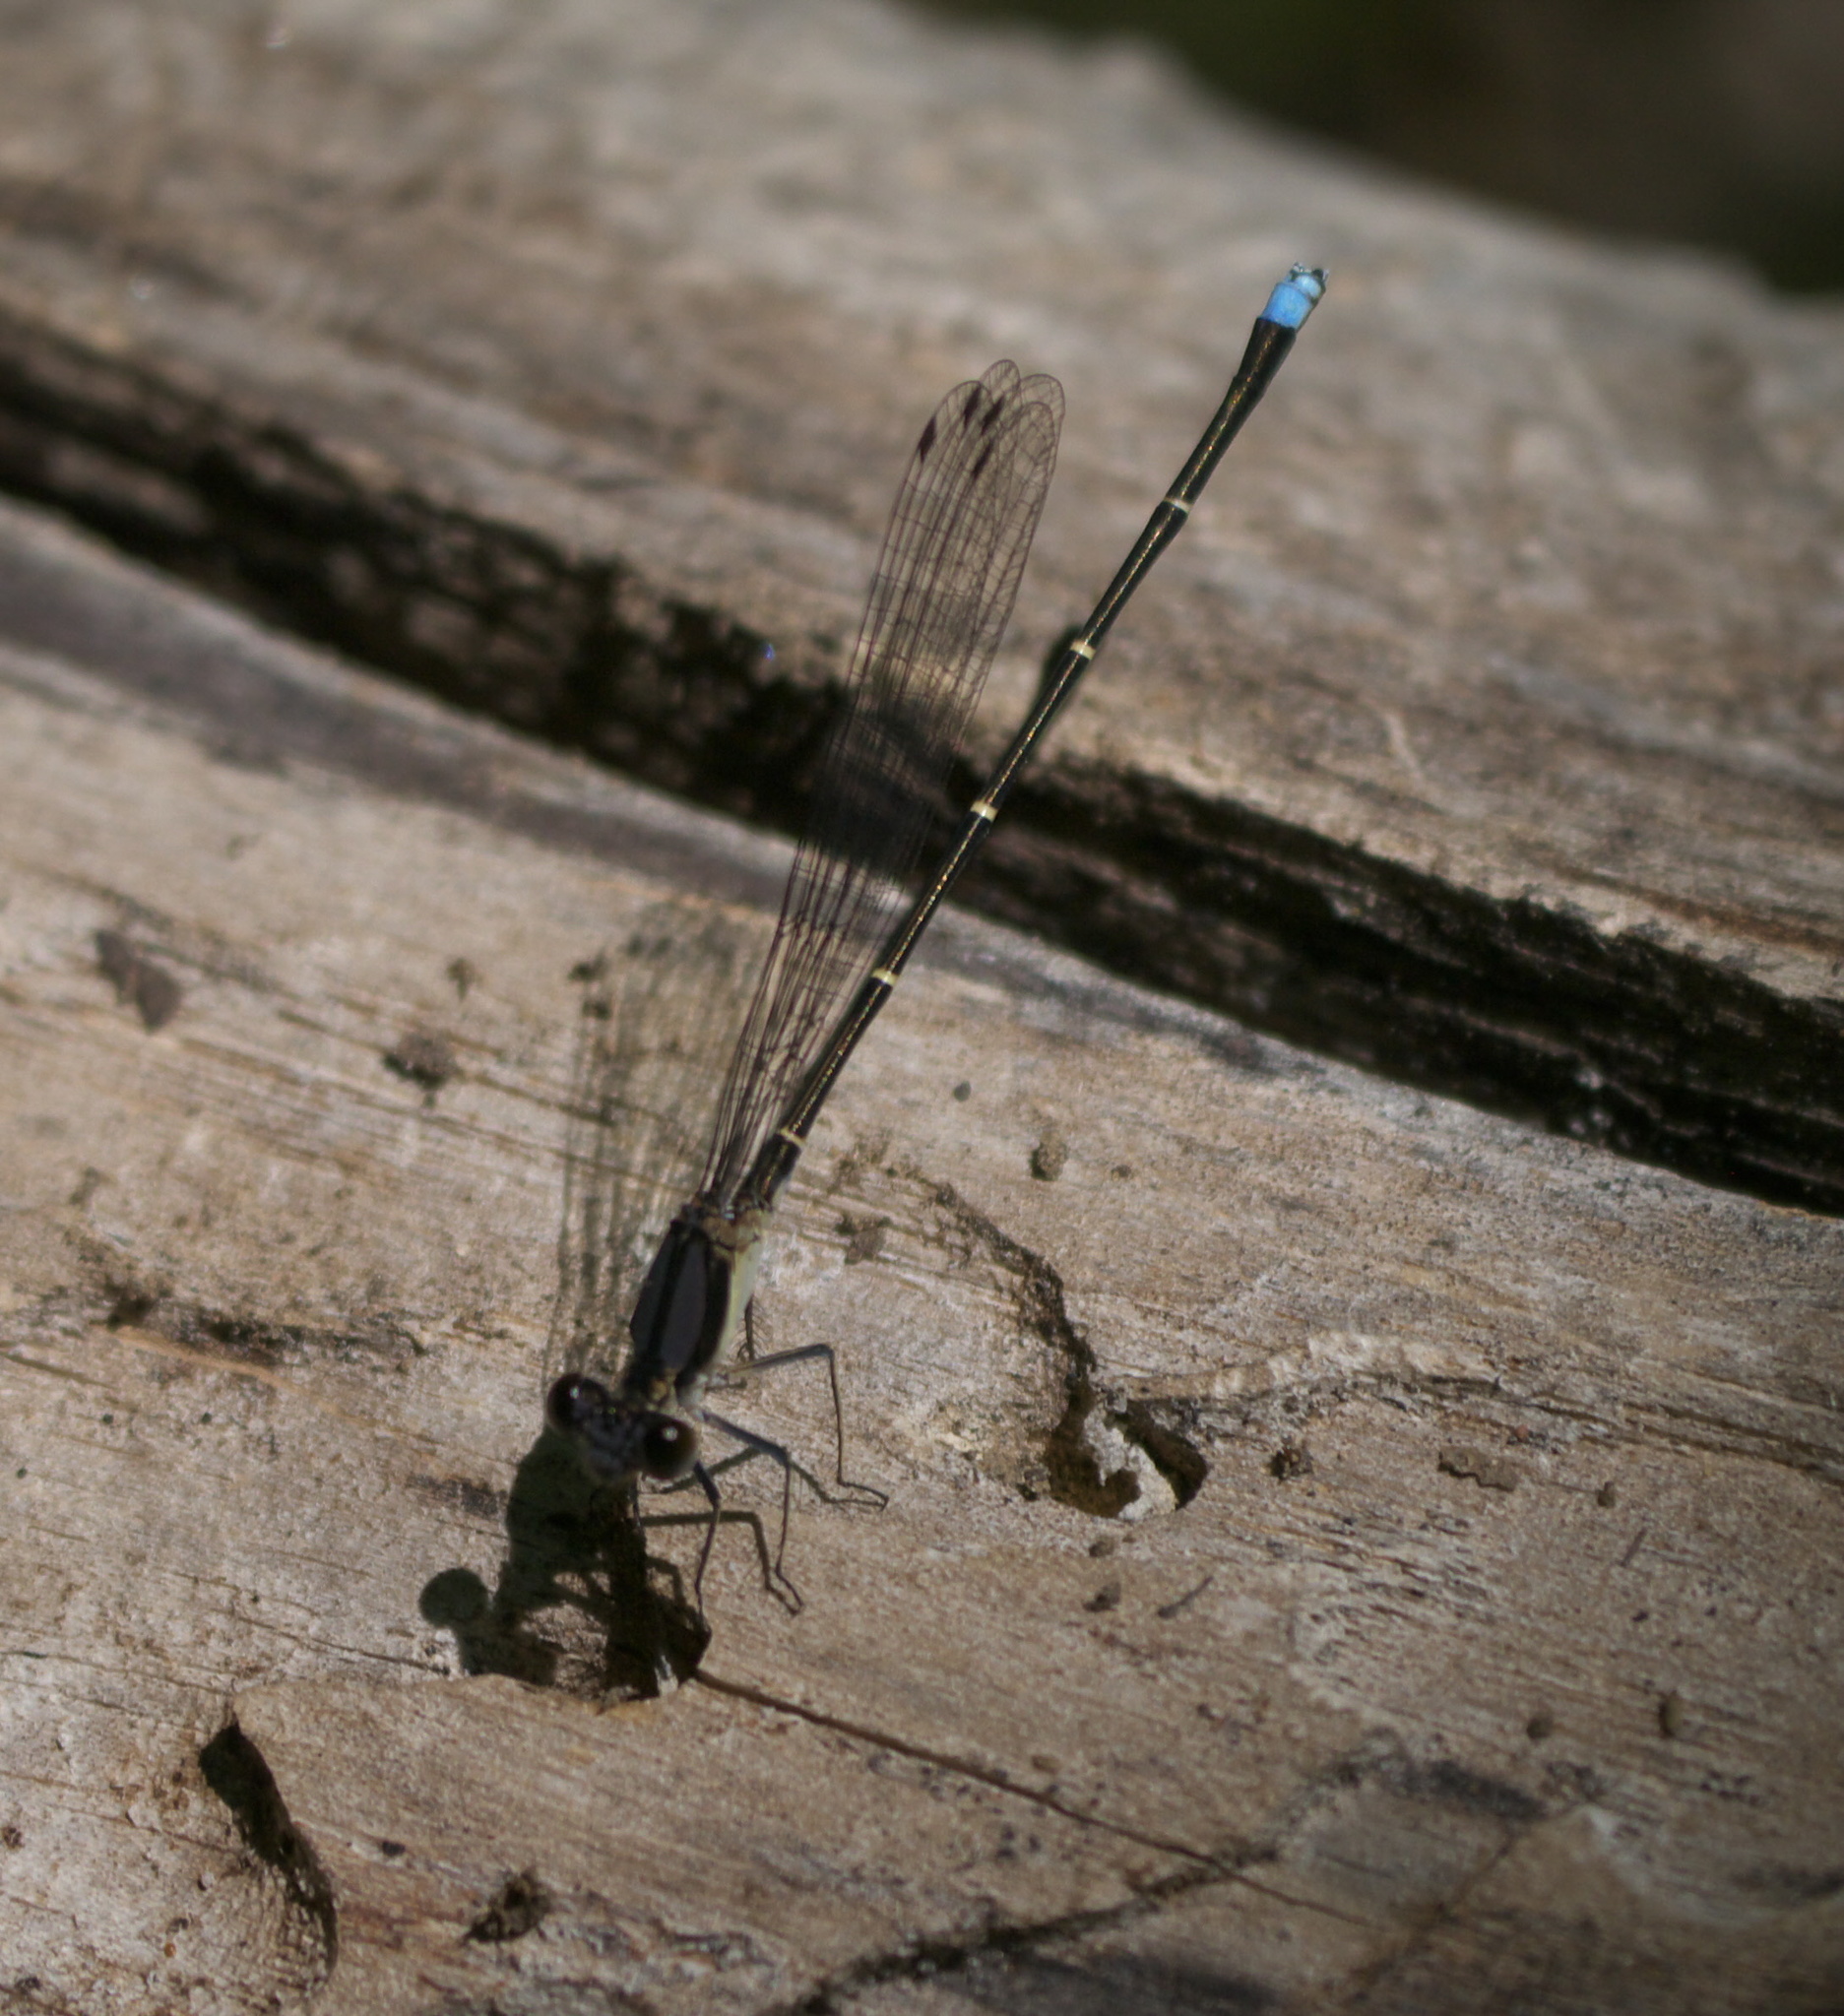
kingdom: Animalia
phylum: Arthropoda
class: Insecta
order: Odonata
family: Coenagrionidae
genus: Argia
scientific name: Argia tibialis
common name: Blue-tipped dancer
